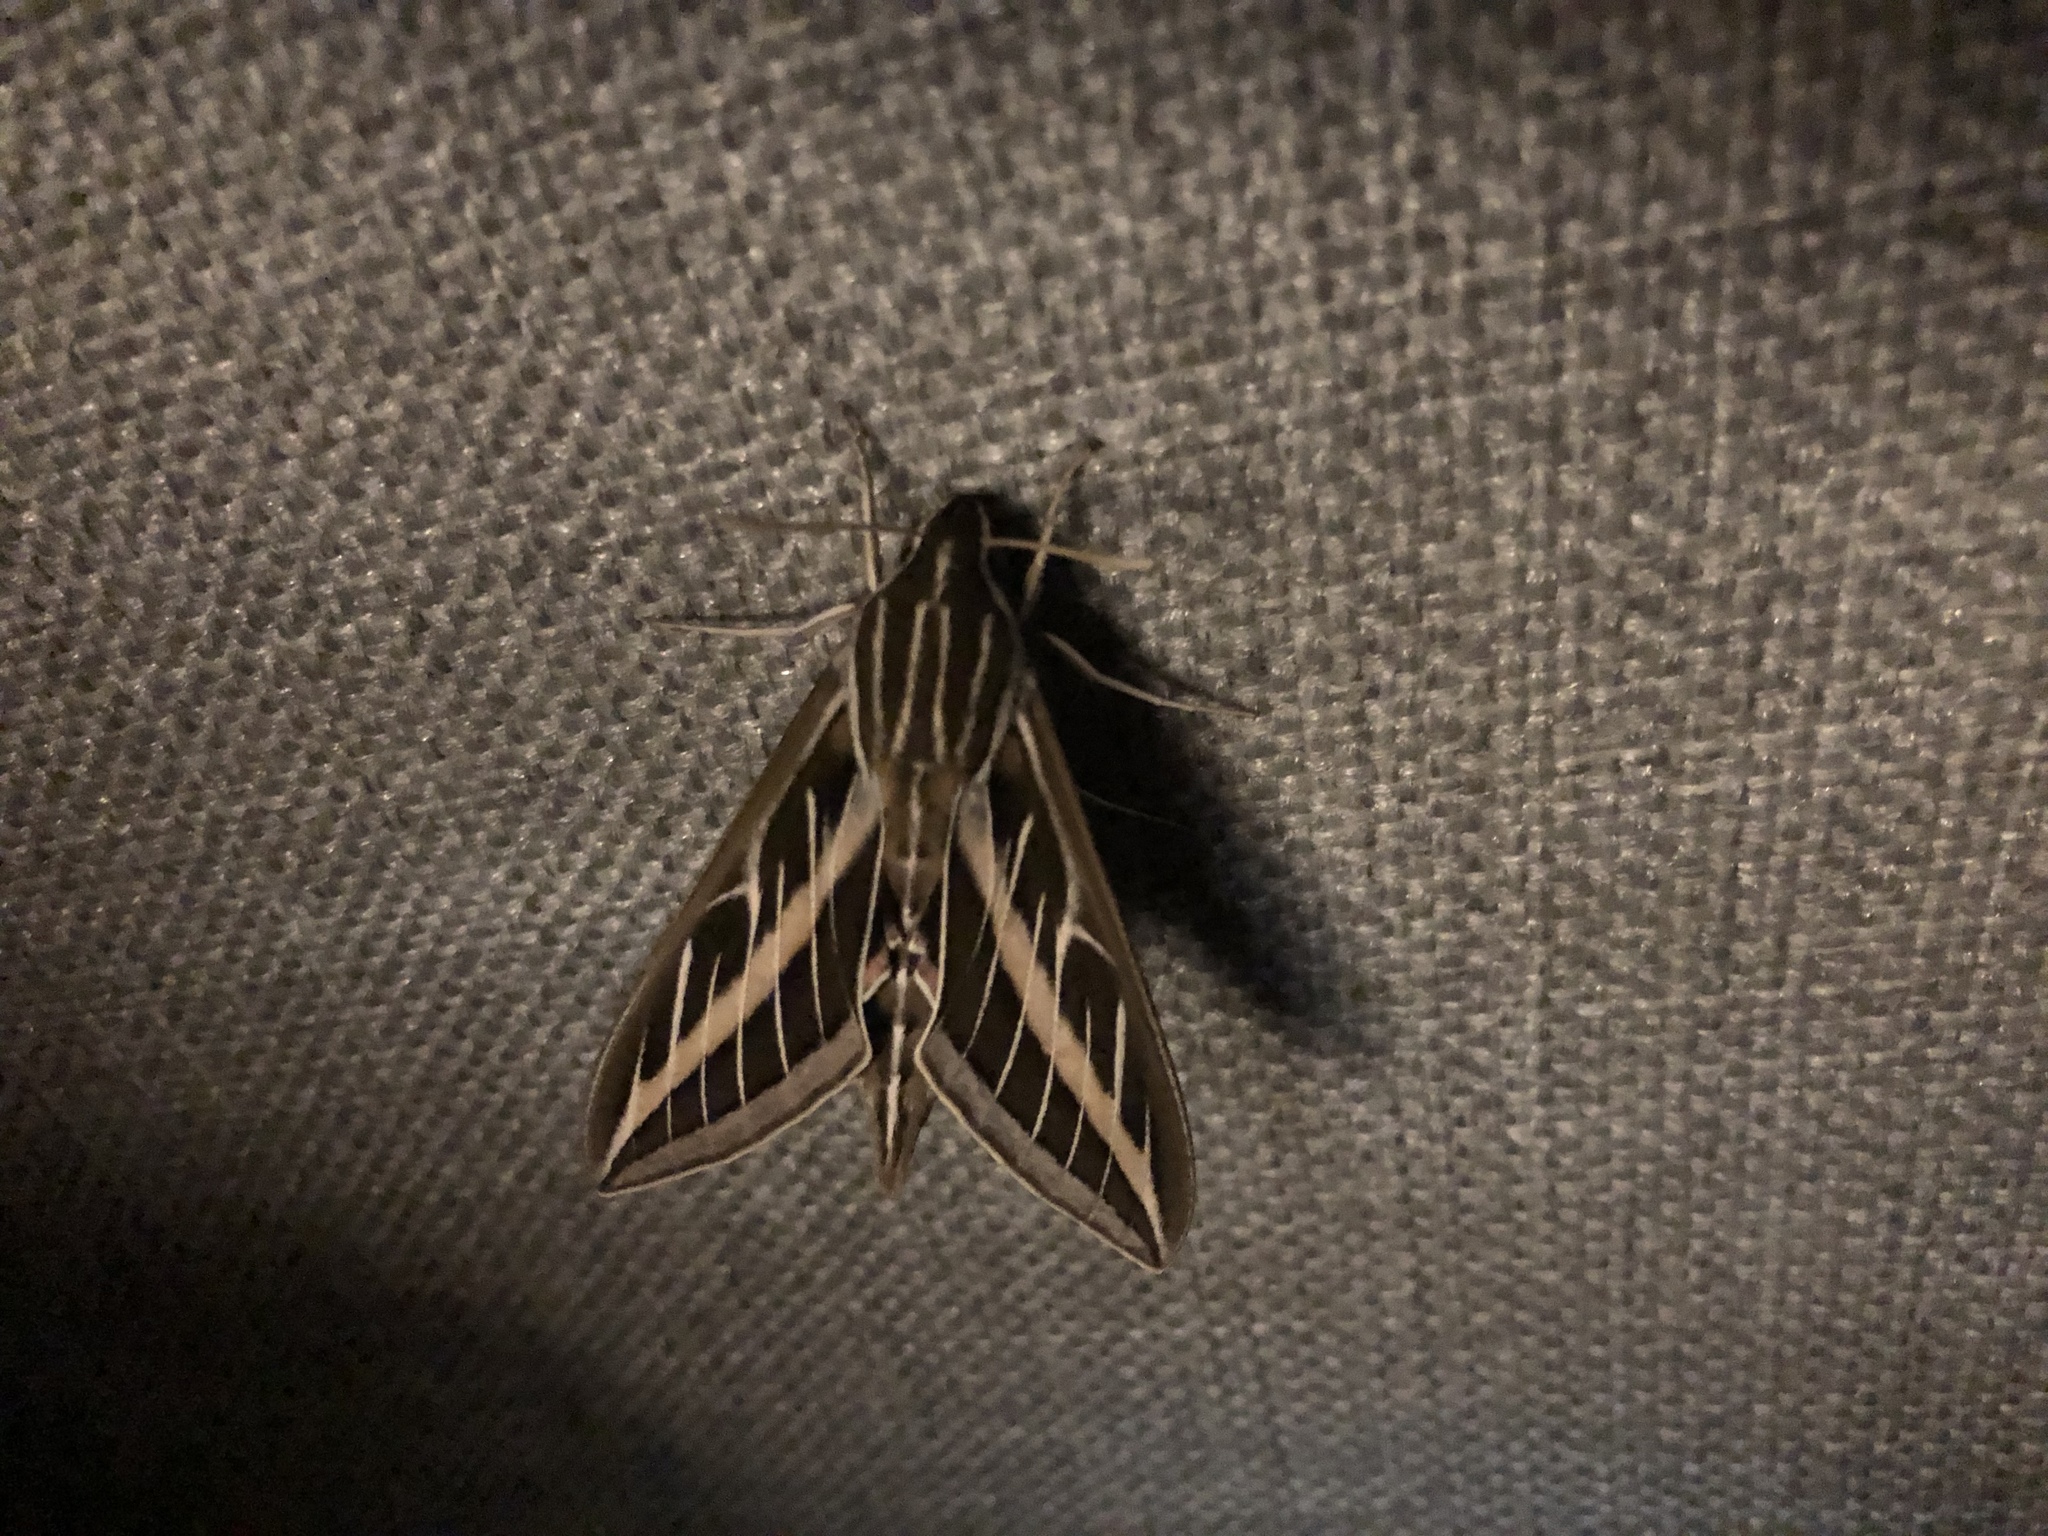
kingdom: Animalia
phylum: Arthropoda
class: Insecta
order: Lepidoptera
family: Sphingidae
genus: Hyles
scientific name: Hyles lineata
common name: White-lined sphinx
